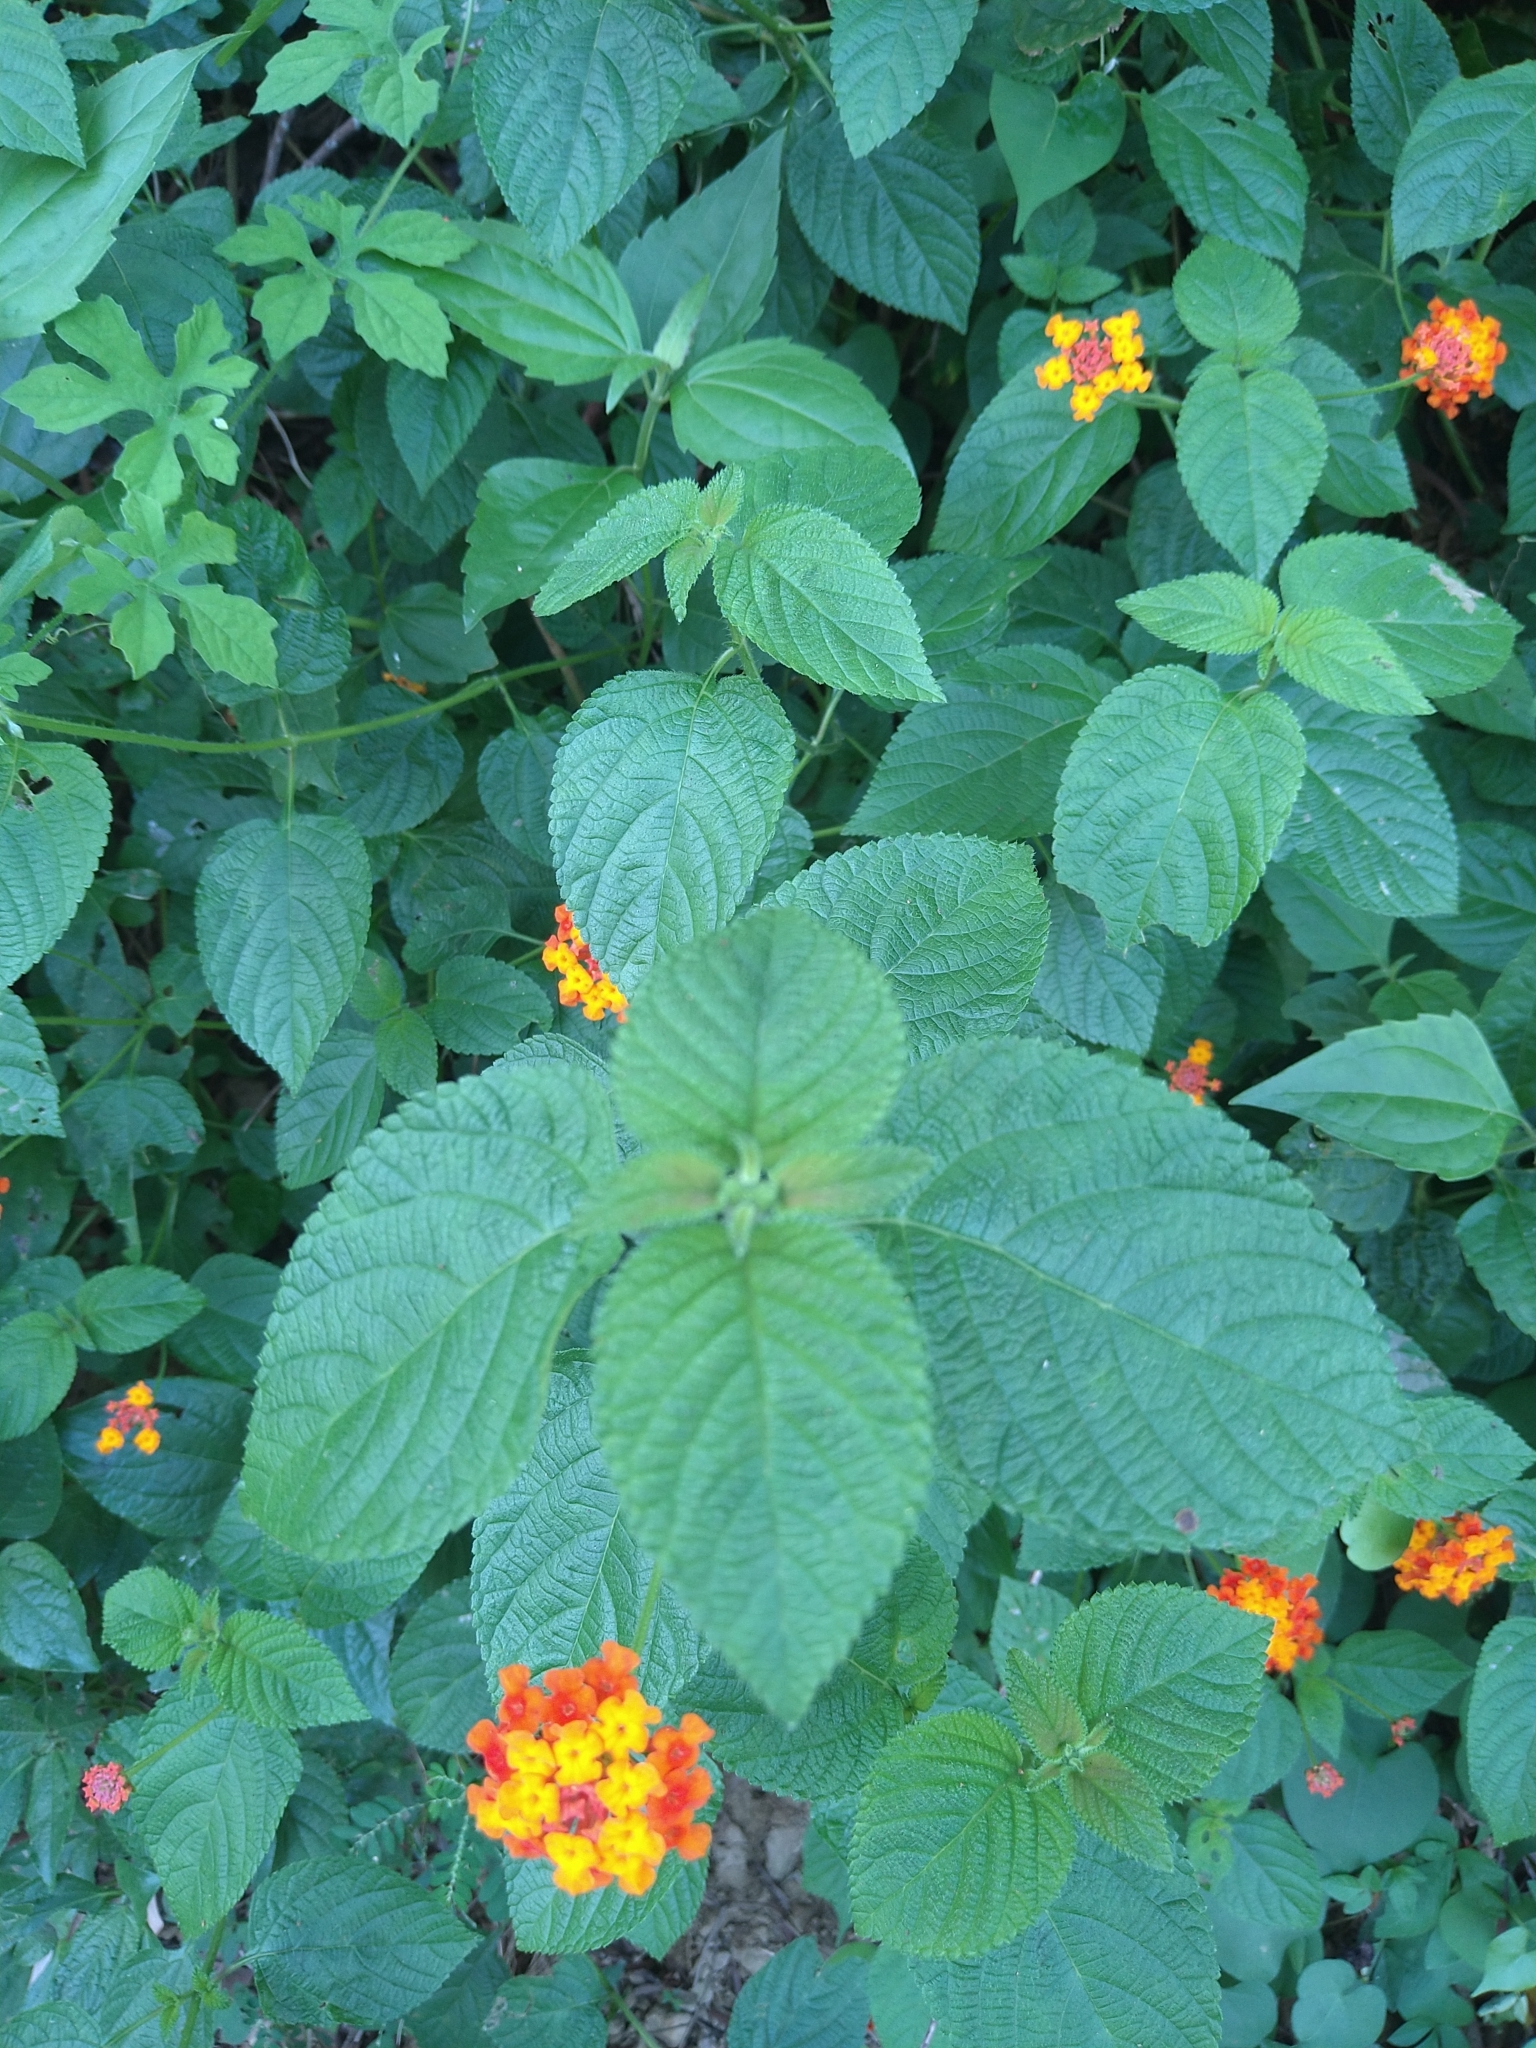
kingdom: Plantae
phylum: Tracheophyta
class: Magnoliopsida
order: Lamiales
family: Verbenaceae
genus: Lantana
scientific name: Lantana camara
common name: Lantana
